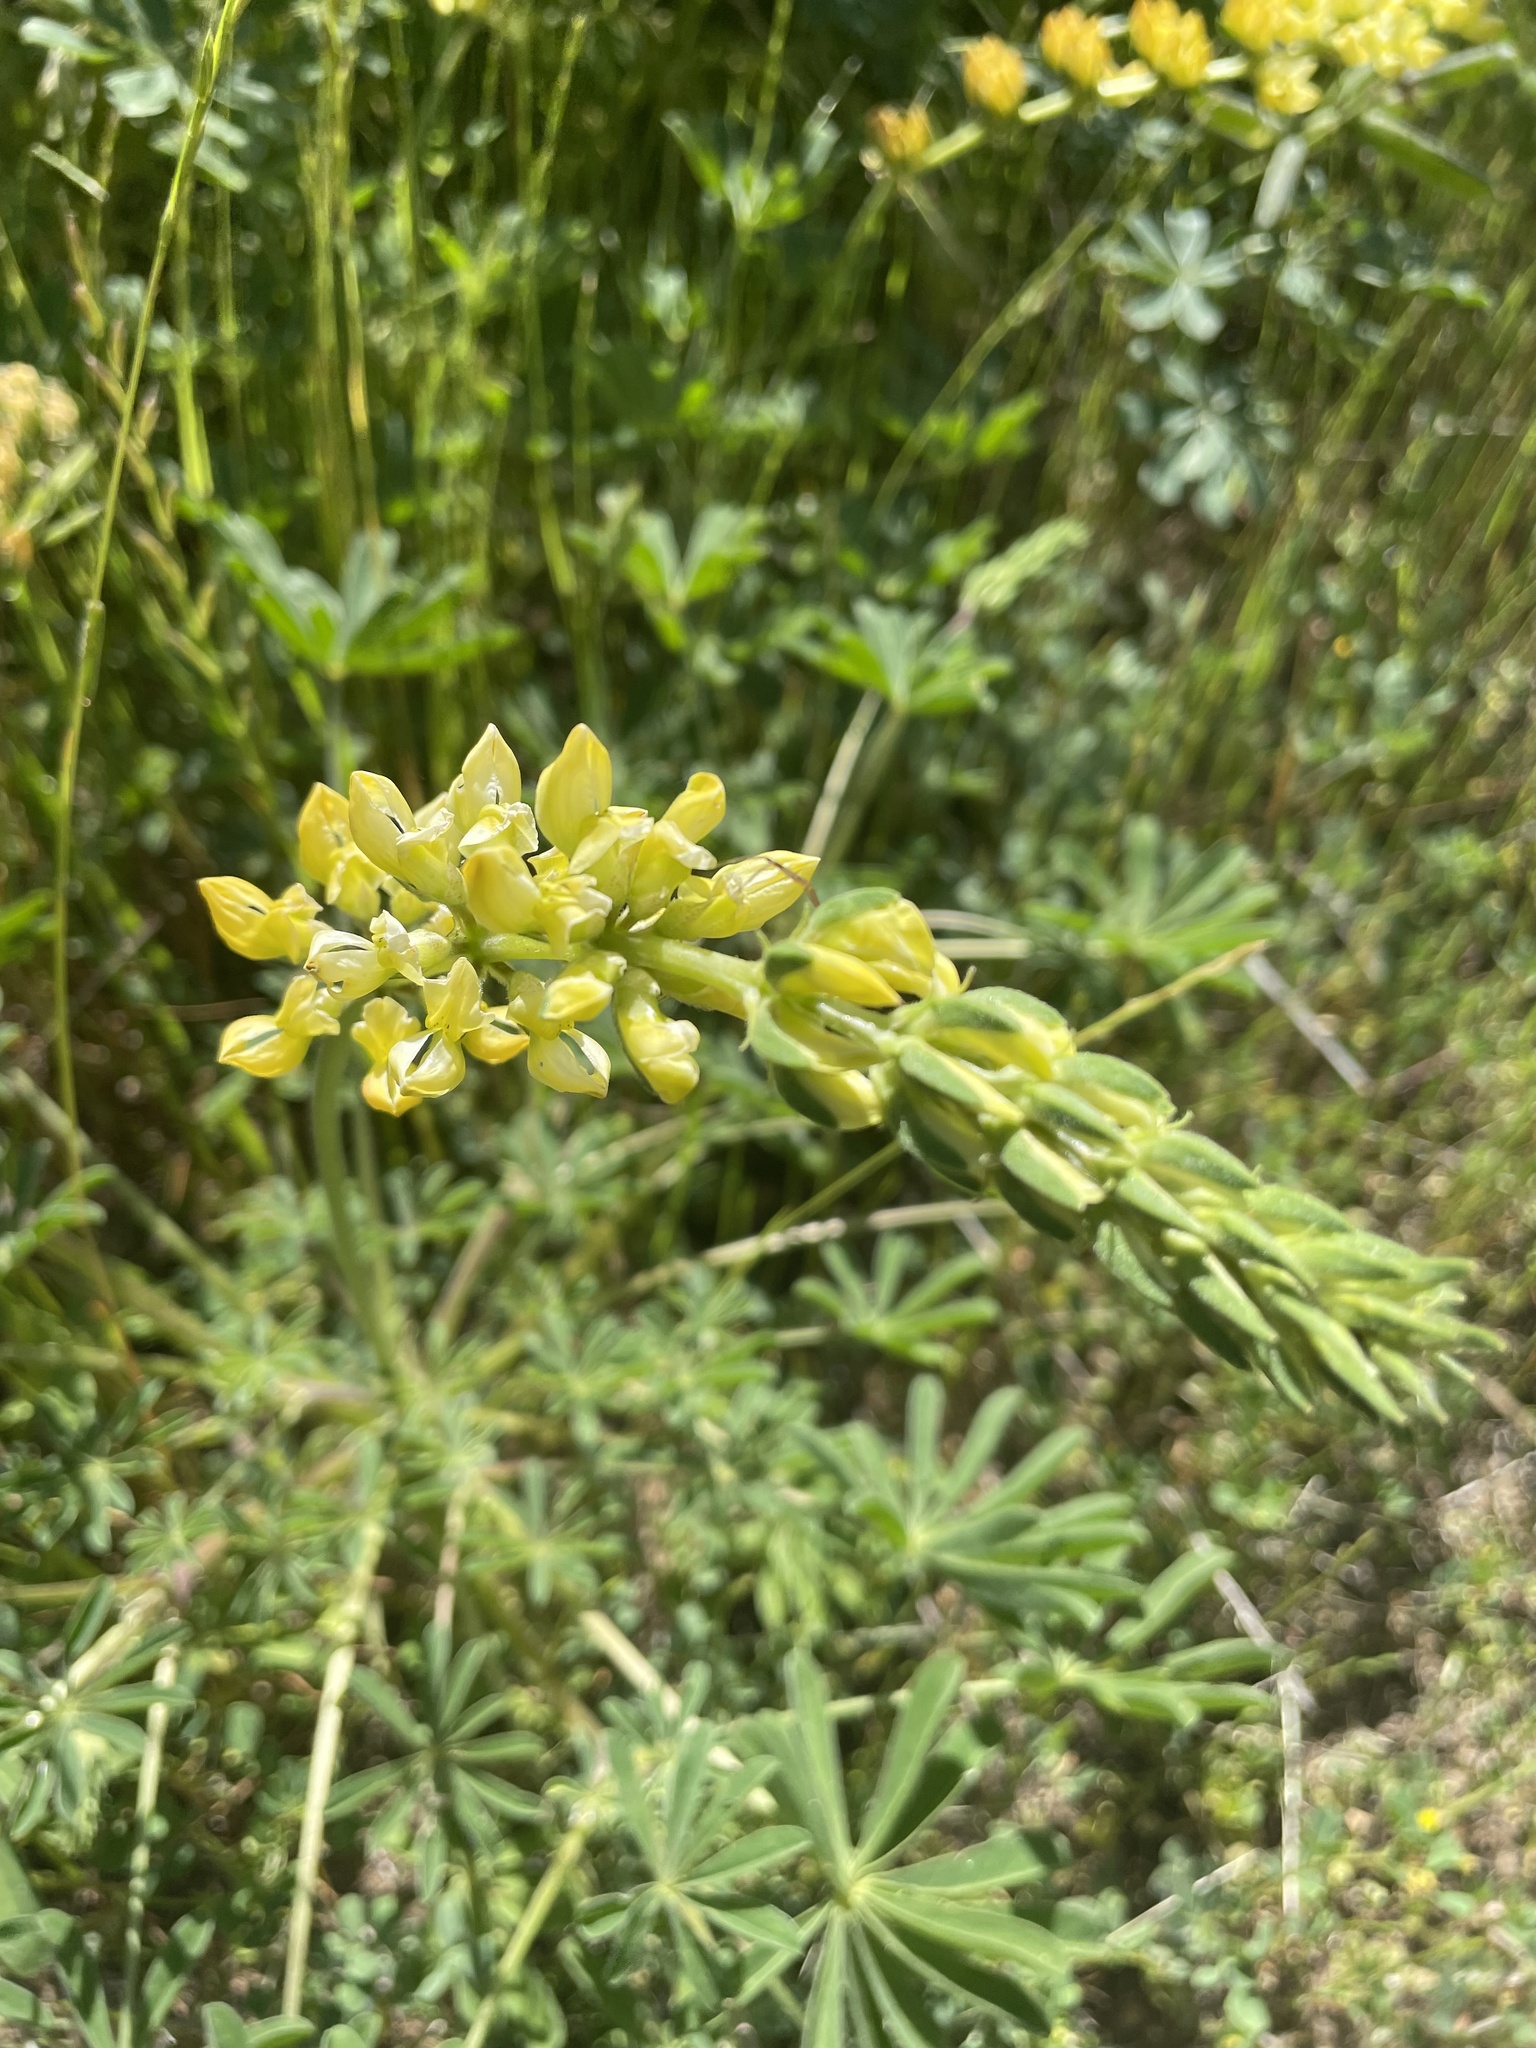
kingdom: Plantae
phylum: Tracheophyta
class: Magnoliopsida
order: Fabales
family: Fabaceae
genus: Lupinus
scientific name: Lupinus densiflorus
